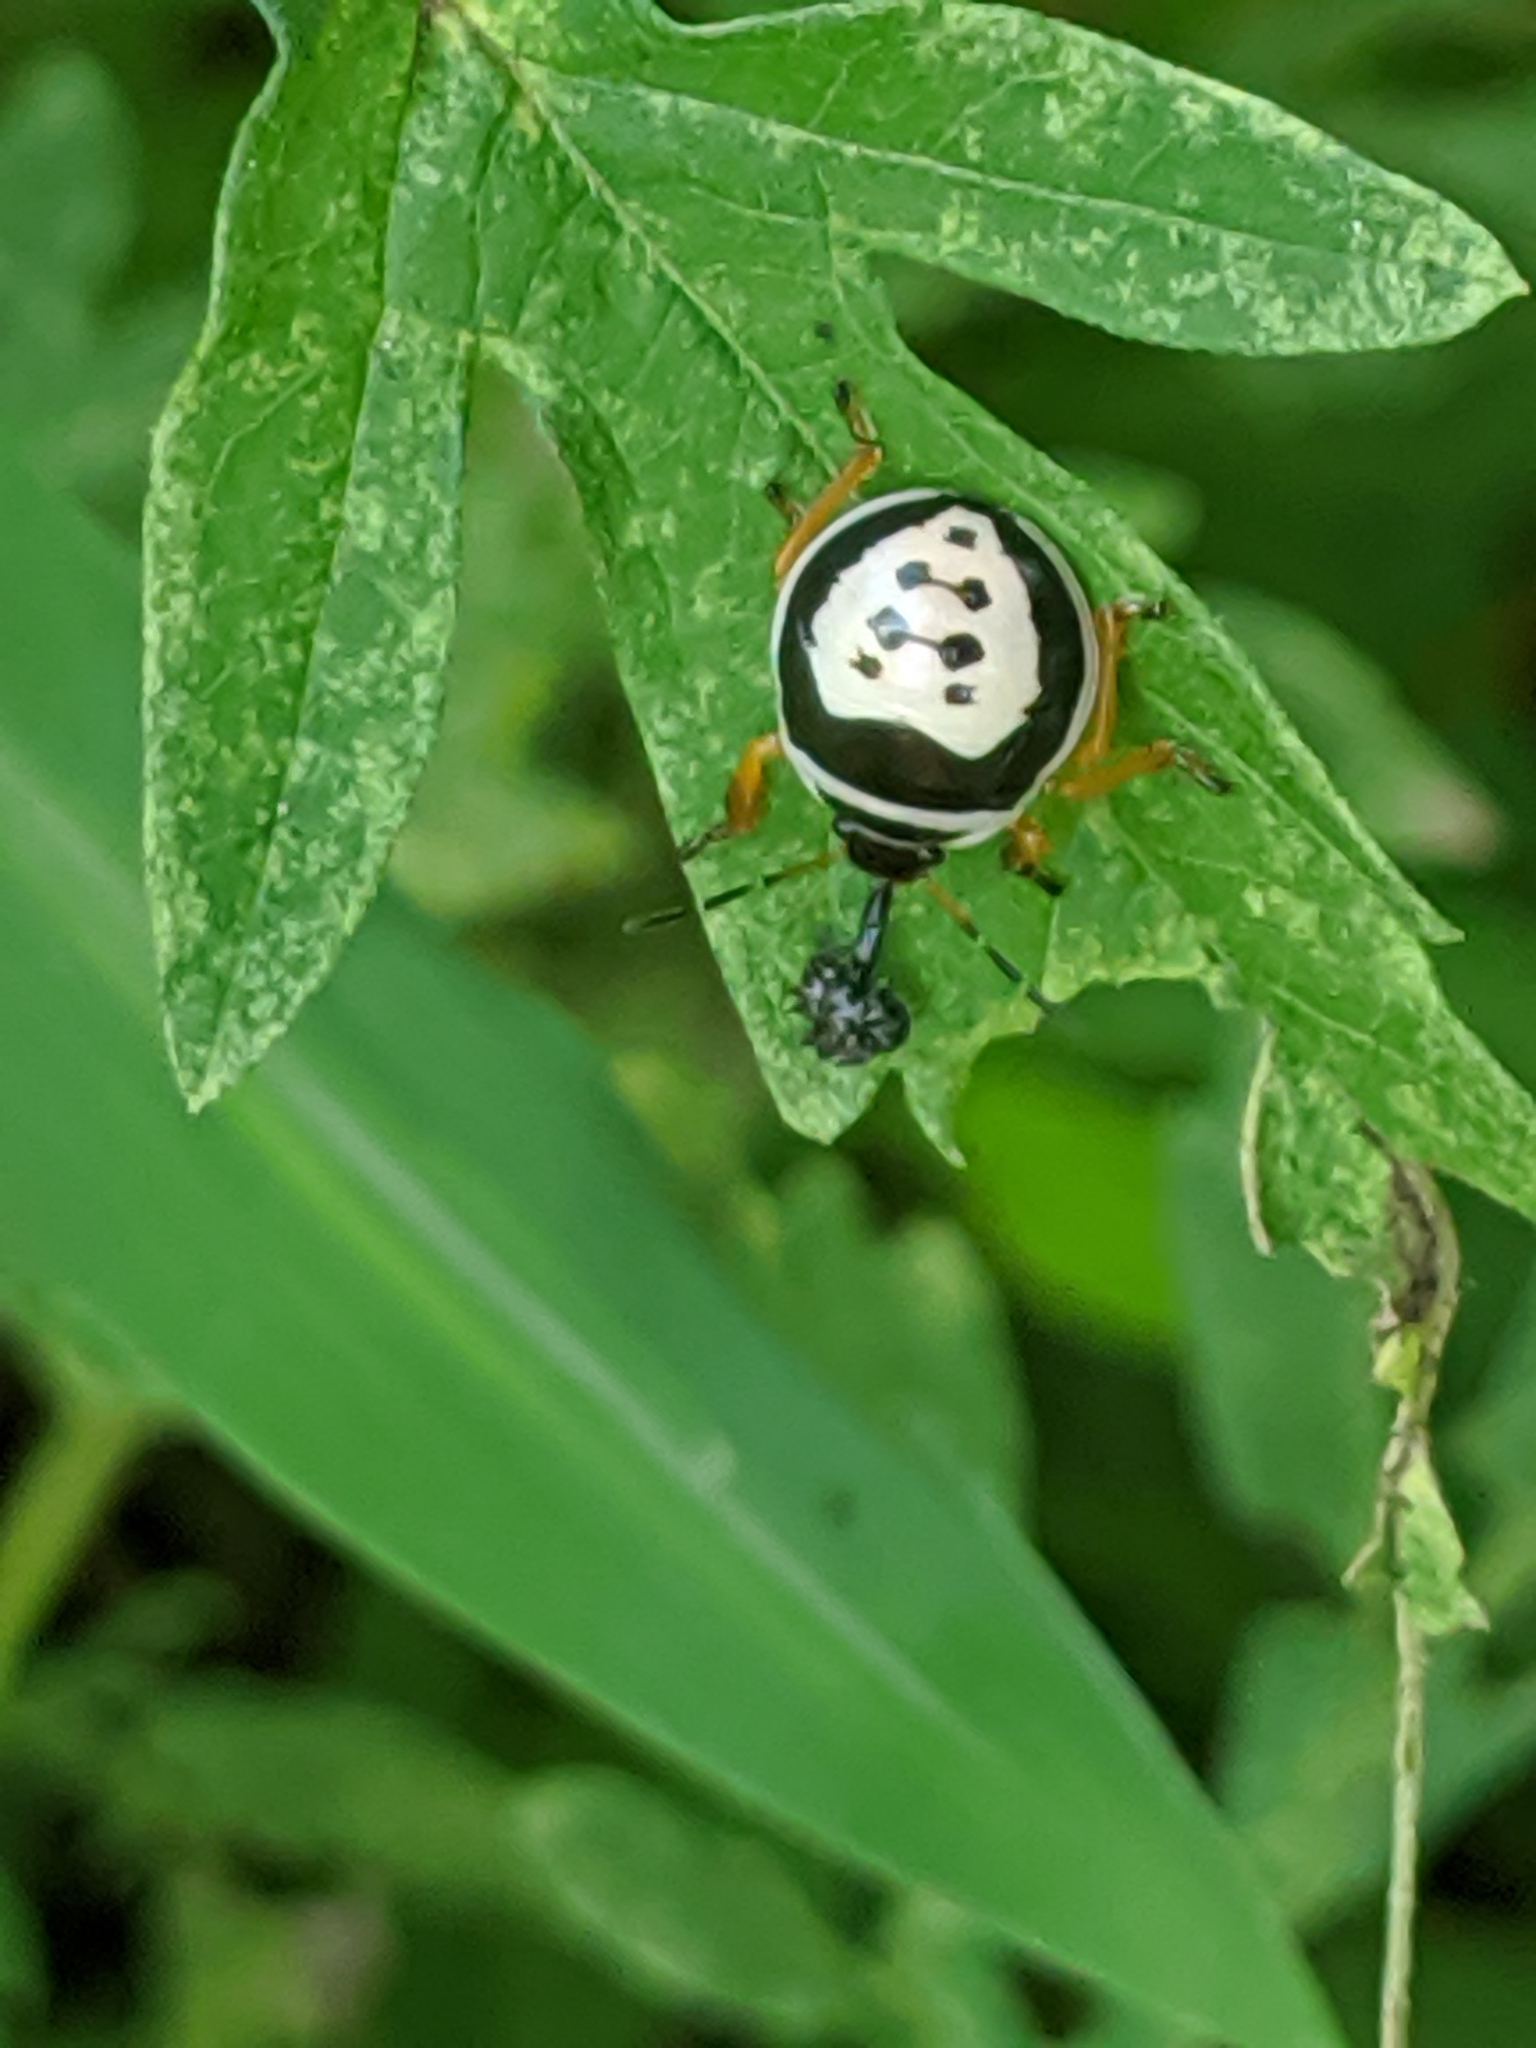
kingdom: Animalia
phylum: Arthropoda
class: Insecta
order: Hemiptera
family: Pentatomidae
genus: Stiretrus
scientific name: Stiretrus anchorago
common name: Anchor stink bug
